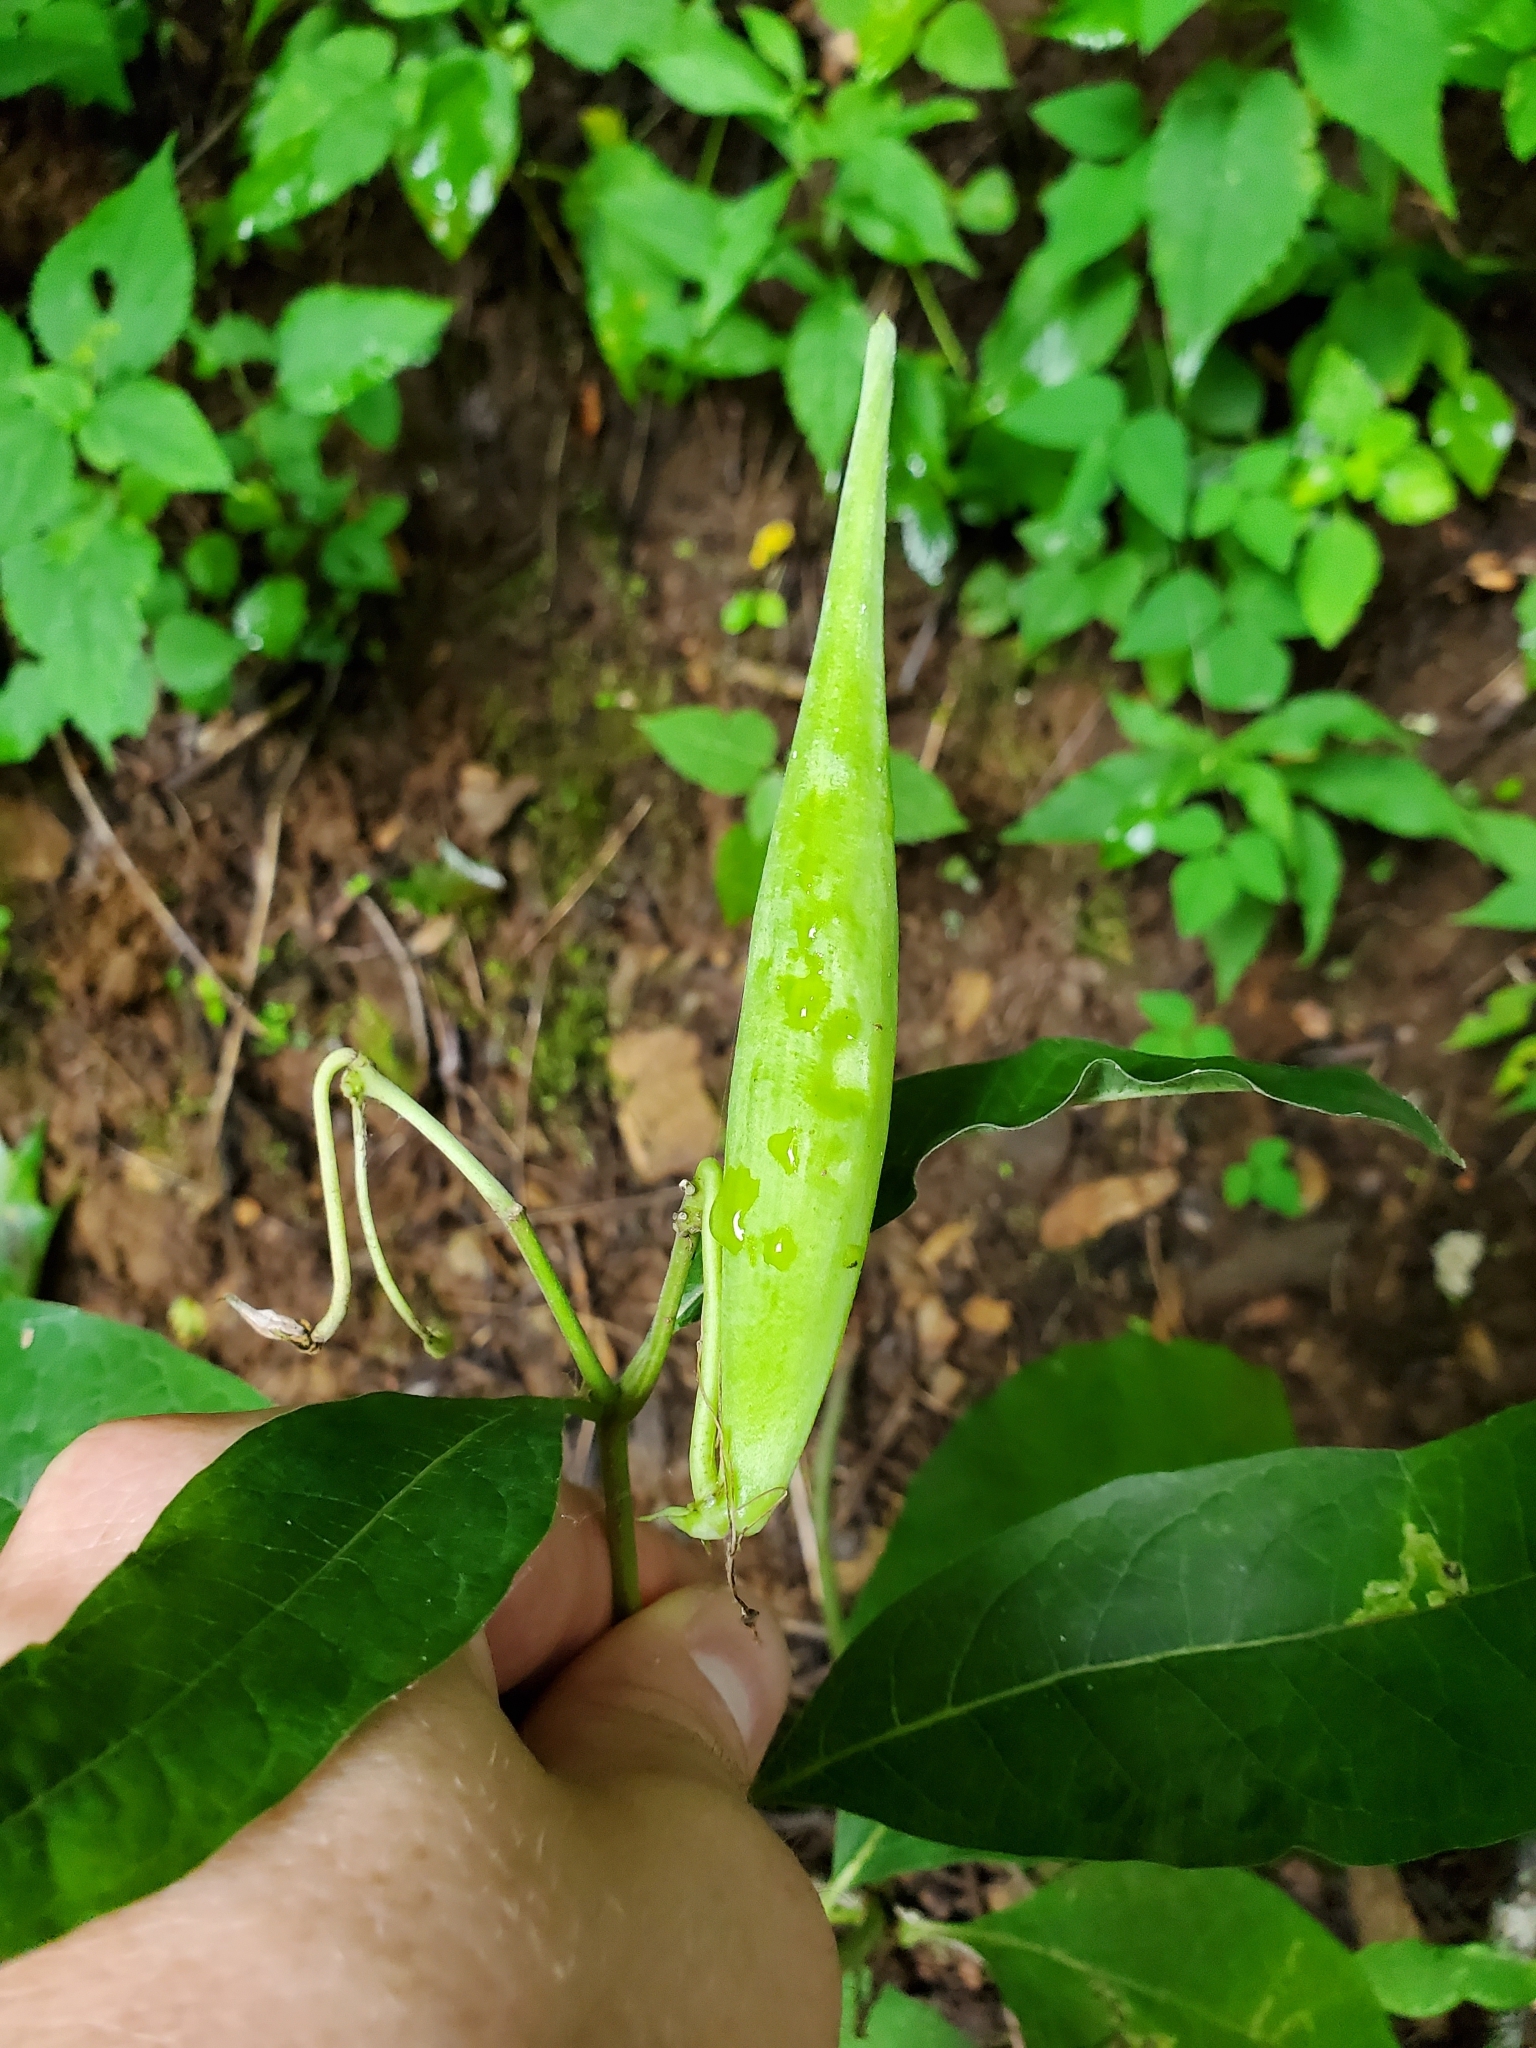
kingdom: Plantae
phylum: Tracheophyta
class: Magnoliopsida
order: Gentianales
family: Apocynaceae
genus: Asclepias
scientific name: Asclepias exaltata
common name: Poke milkweed
